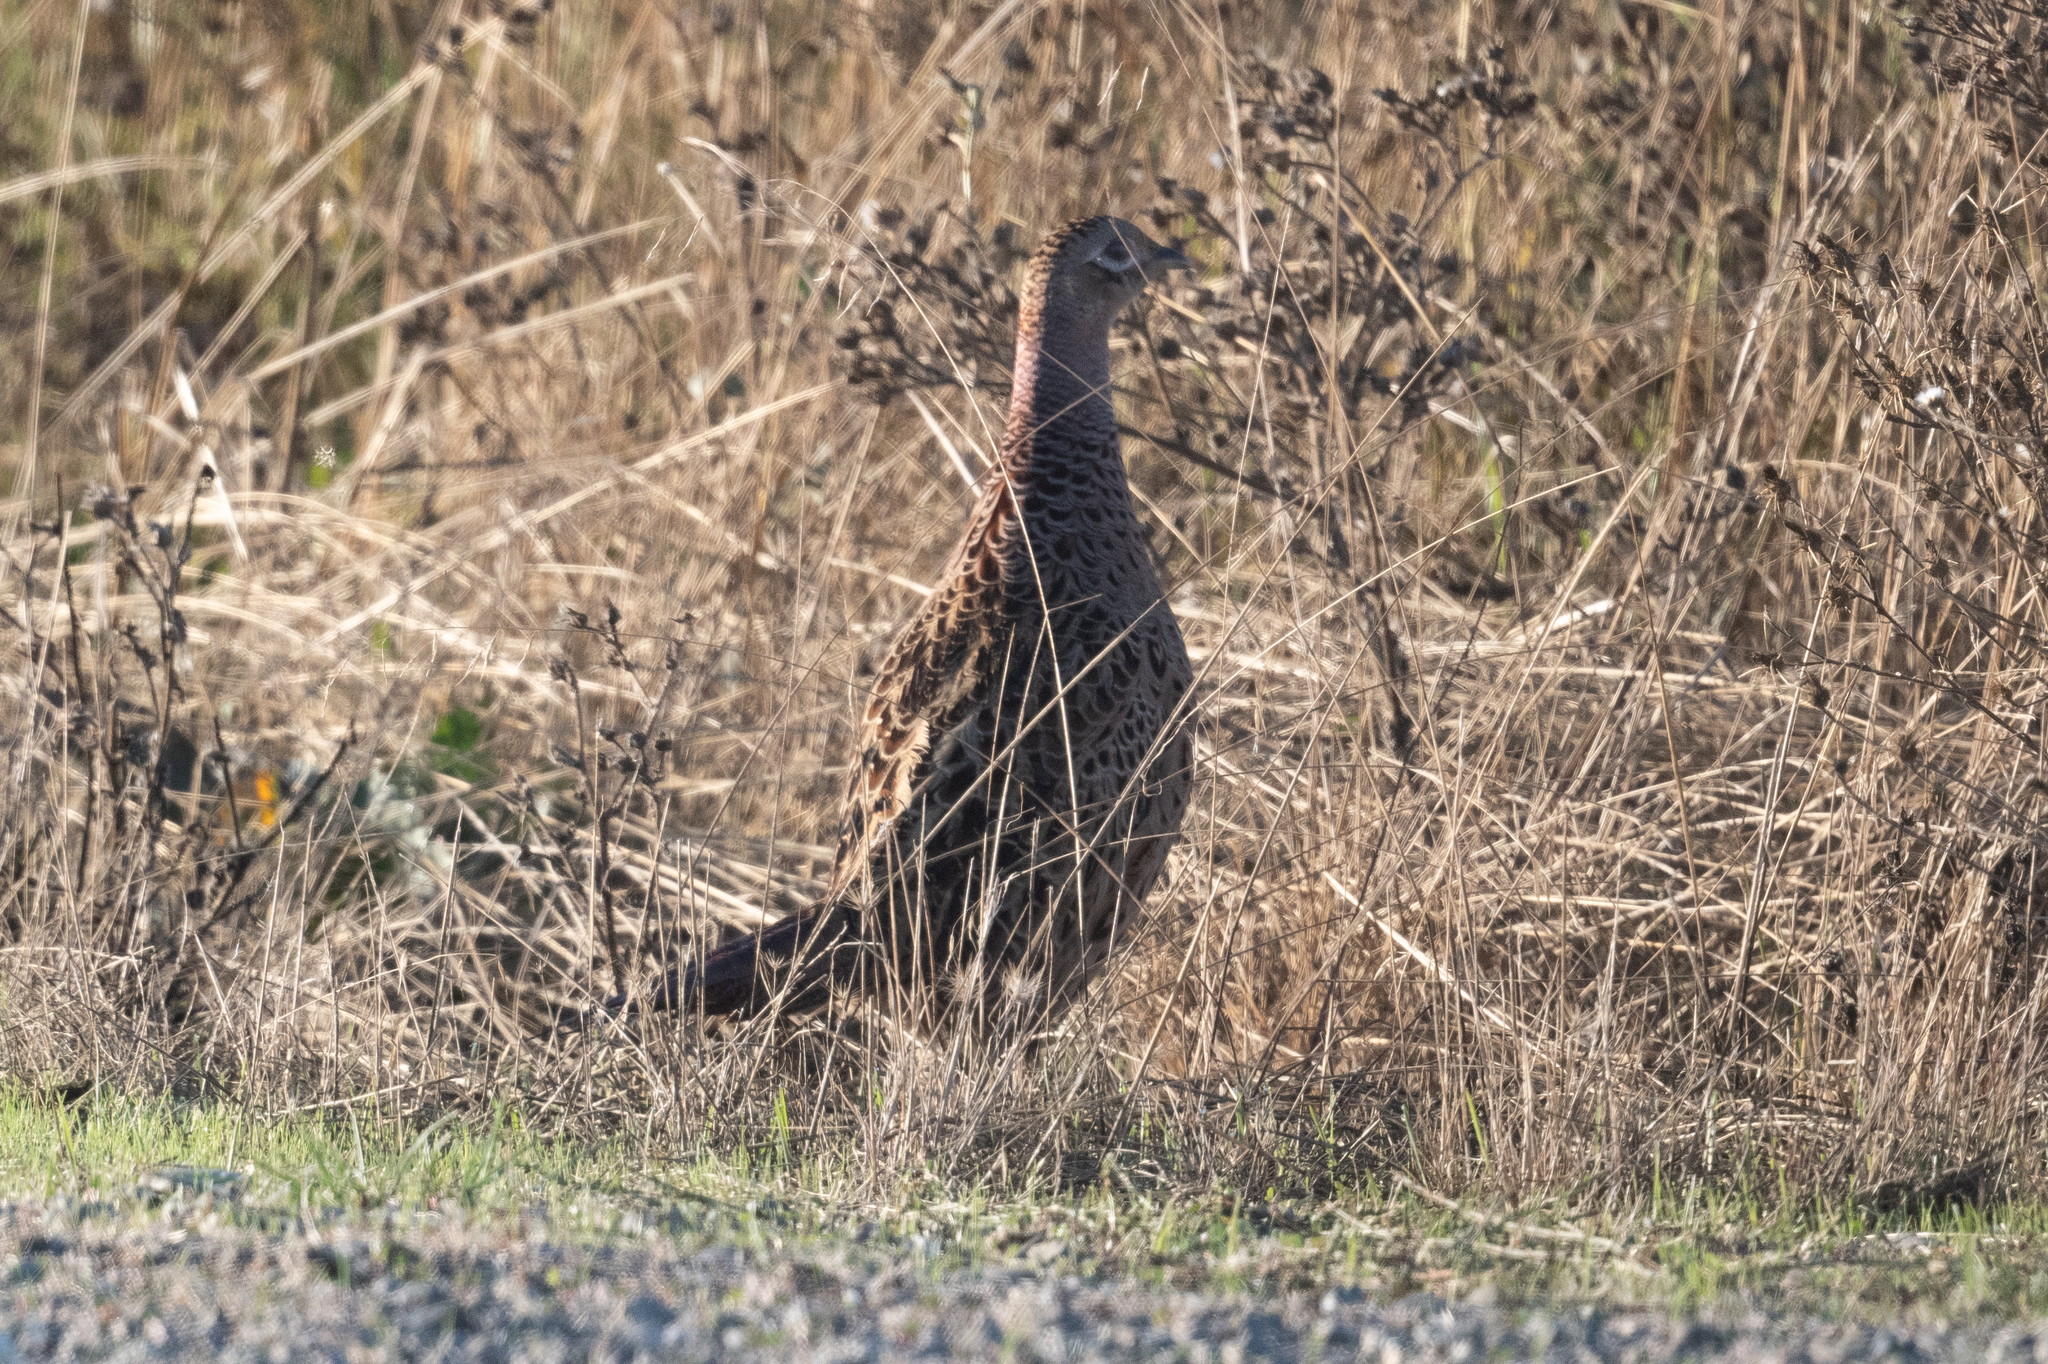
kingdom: Animalia
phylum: Chordata
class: Aves
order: Galliformes
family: Phasianidae
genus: Phasianus
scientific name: Phasianus colchicus
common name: Common pheasant
